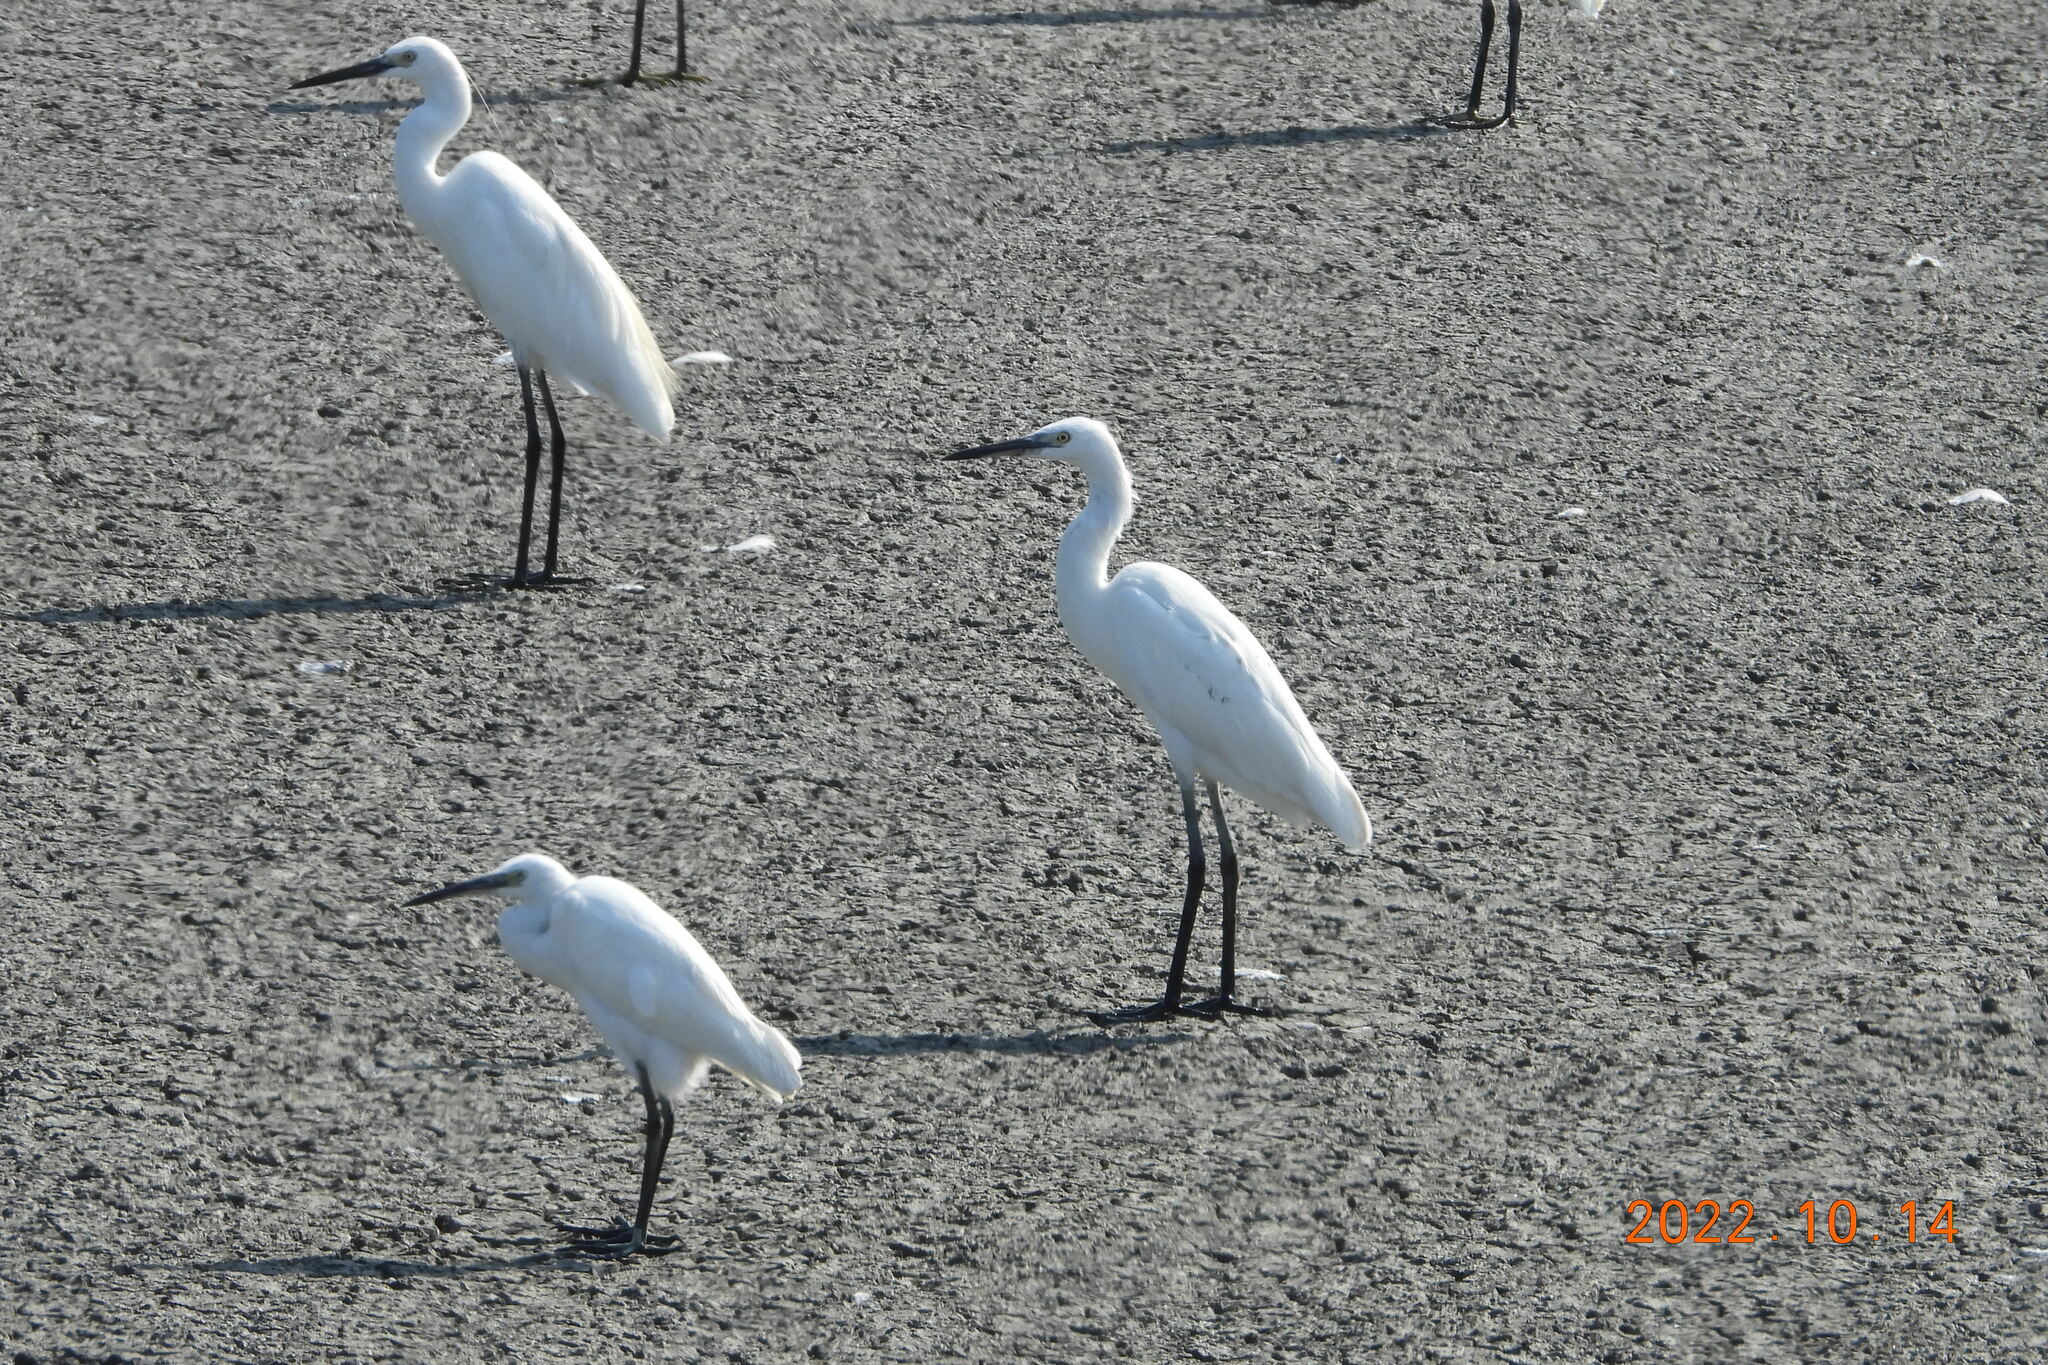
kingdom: Animalia
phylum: Chordata
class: Aves
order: Pelecaniformes
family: Ardeidae
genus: Egretta
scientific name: Egretta garzetta
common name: Little egret
